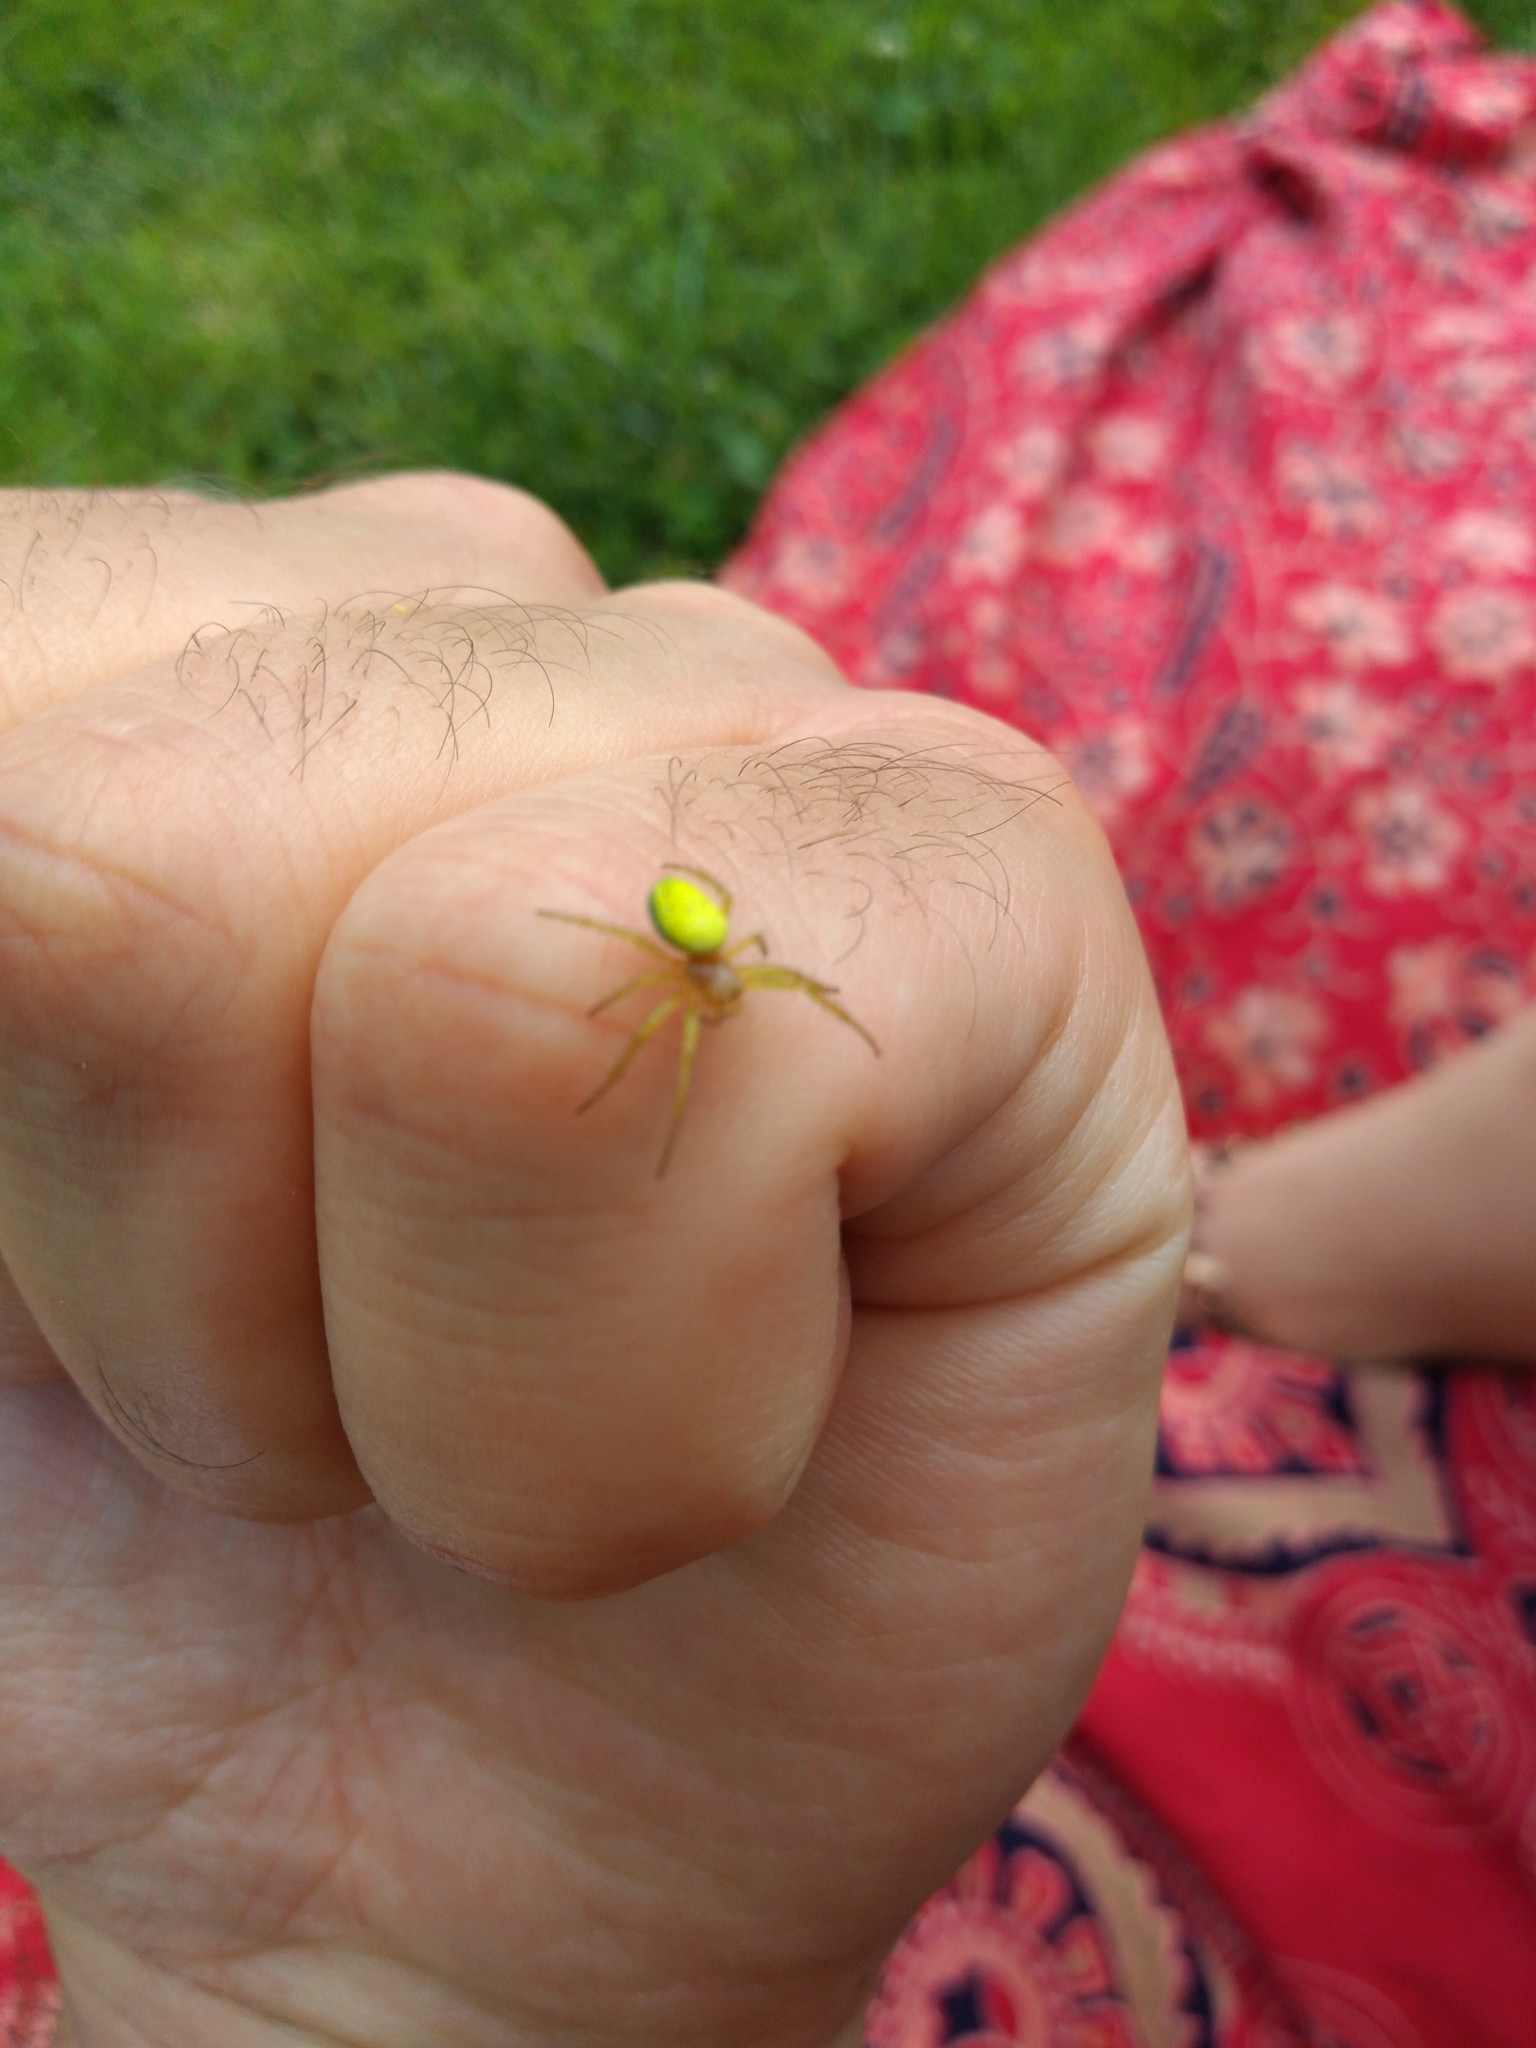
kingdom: Animalia
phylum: Arthropoda
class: Arachnida
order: Araneae
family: Araneidae
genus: Araniella
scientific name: Araniella
